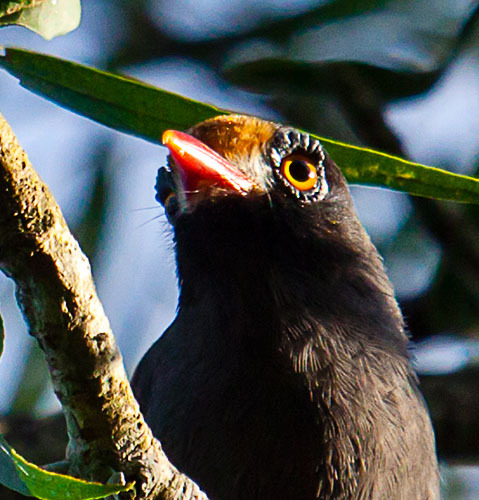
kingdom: Animalia
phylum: Chordata
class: Aves
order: Passeriformes
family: Prionopidae
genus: Prionops
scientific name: Prionops scopifrons
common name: Chestnut-fronted helmetshrike
